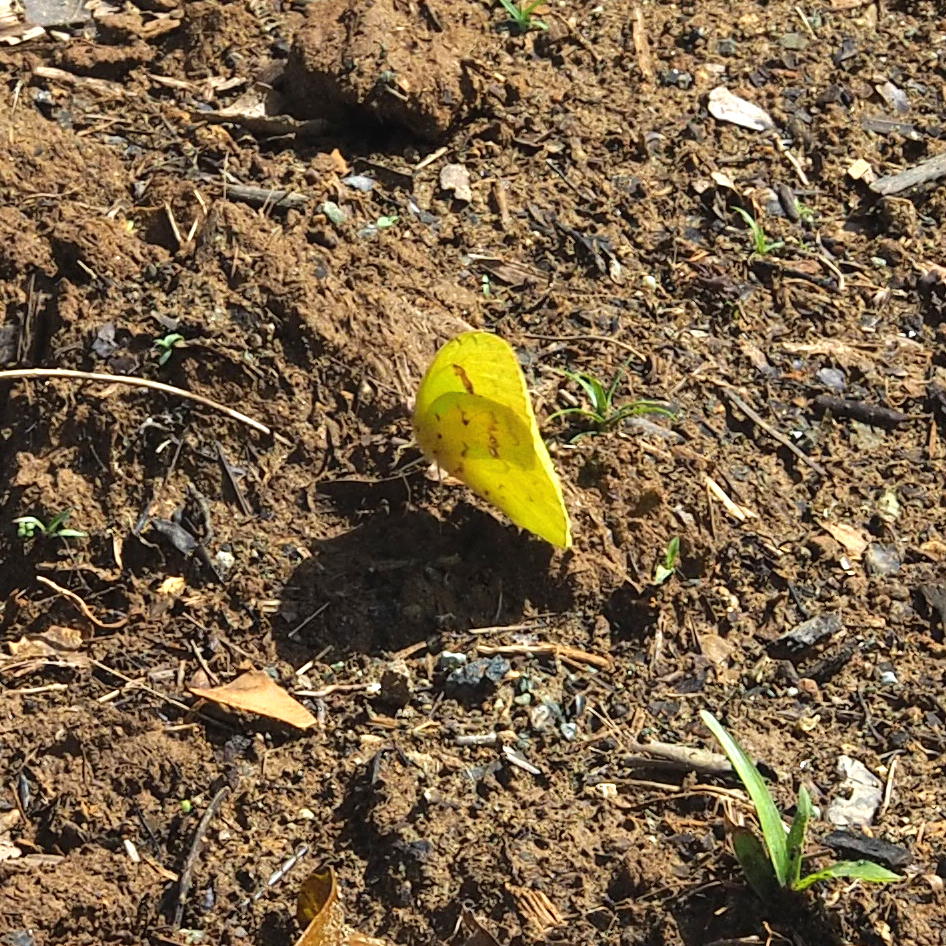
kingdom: Animalia
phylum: Arthropoda
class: Insecta
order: Lepidoptera
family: Pieridae
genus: Phoebis
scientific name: Phoebis sennae
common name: Cloudless sulphur
